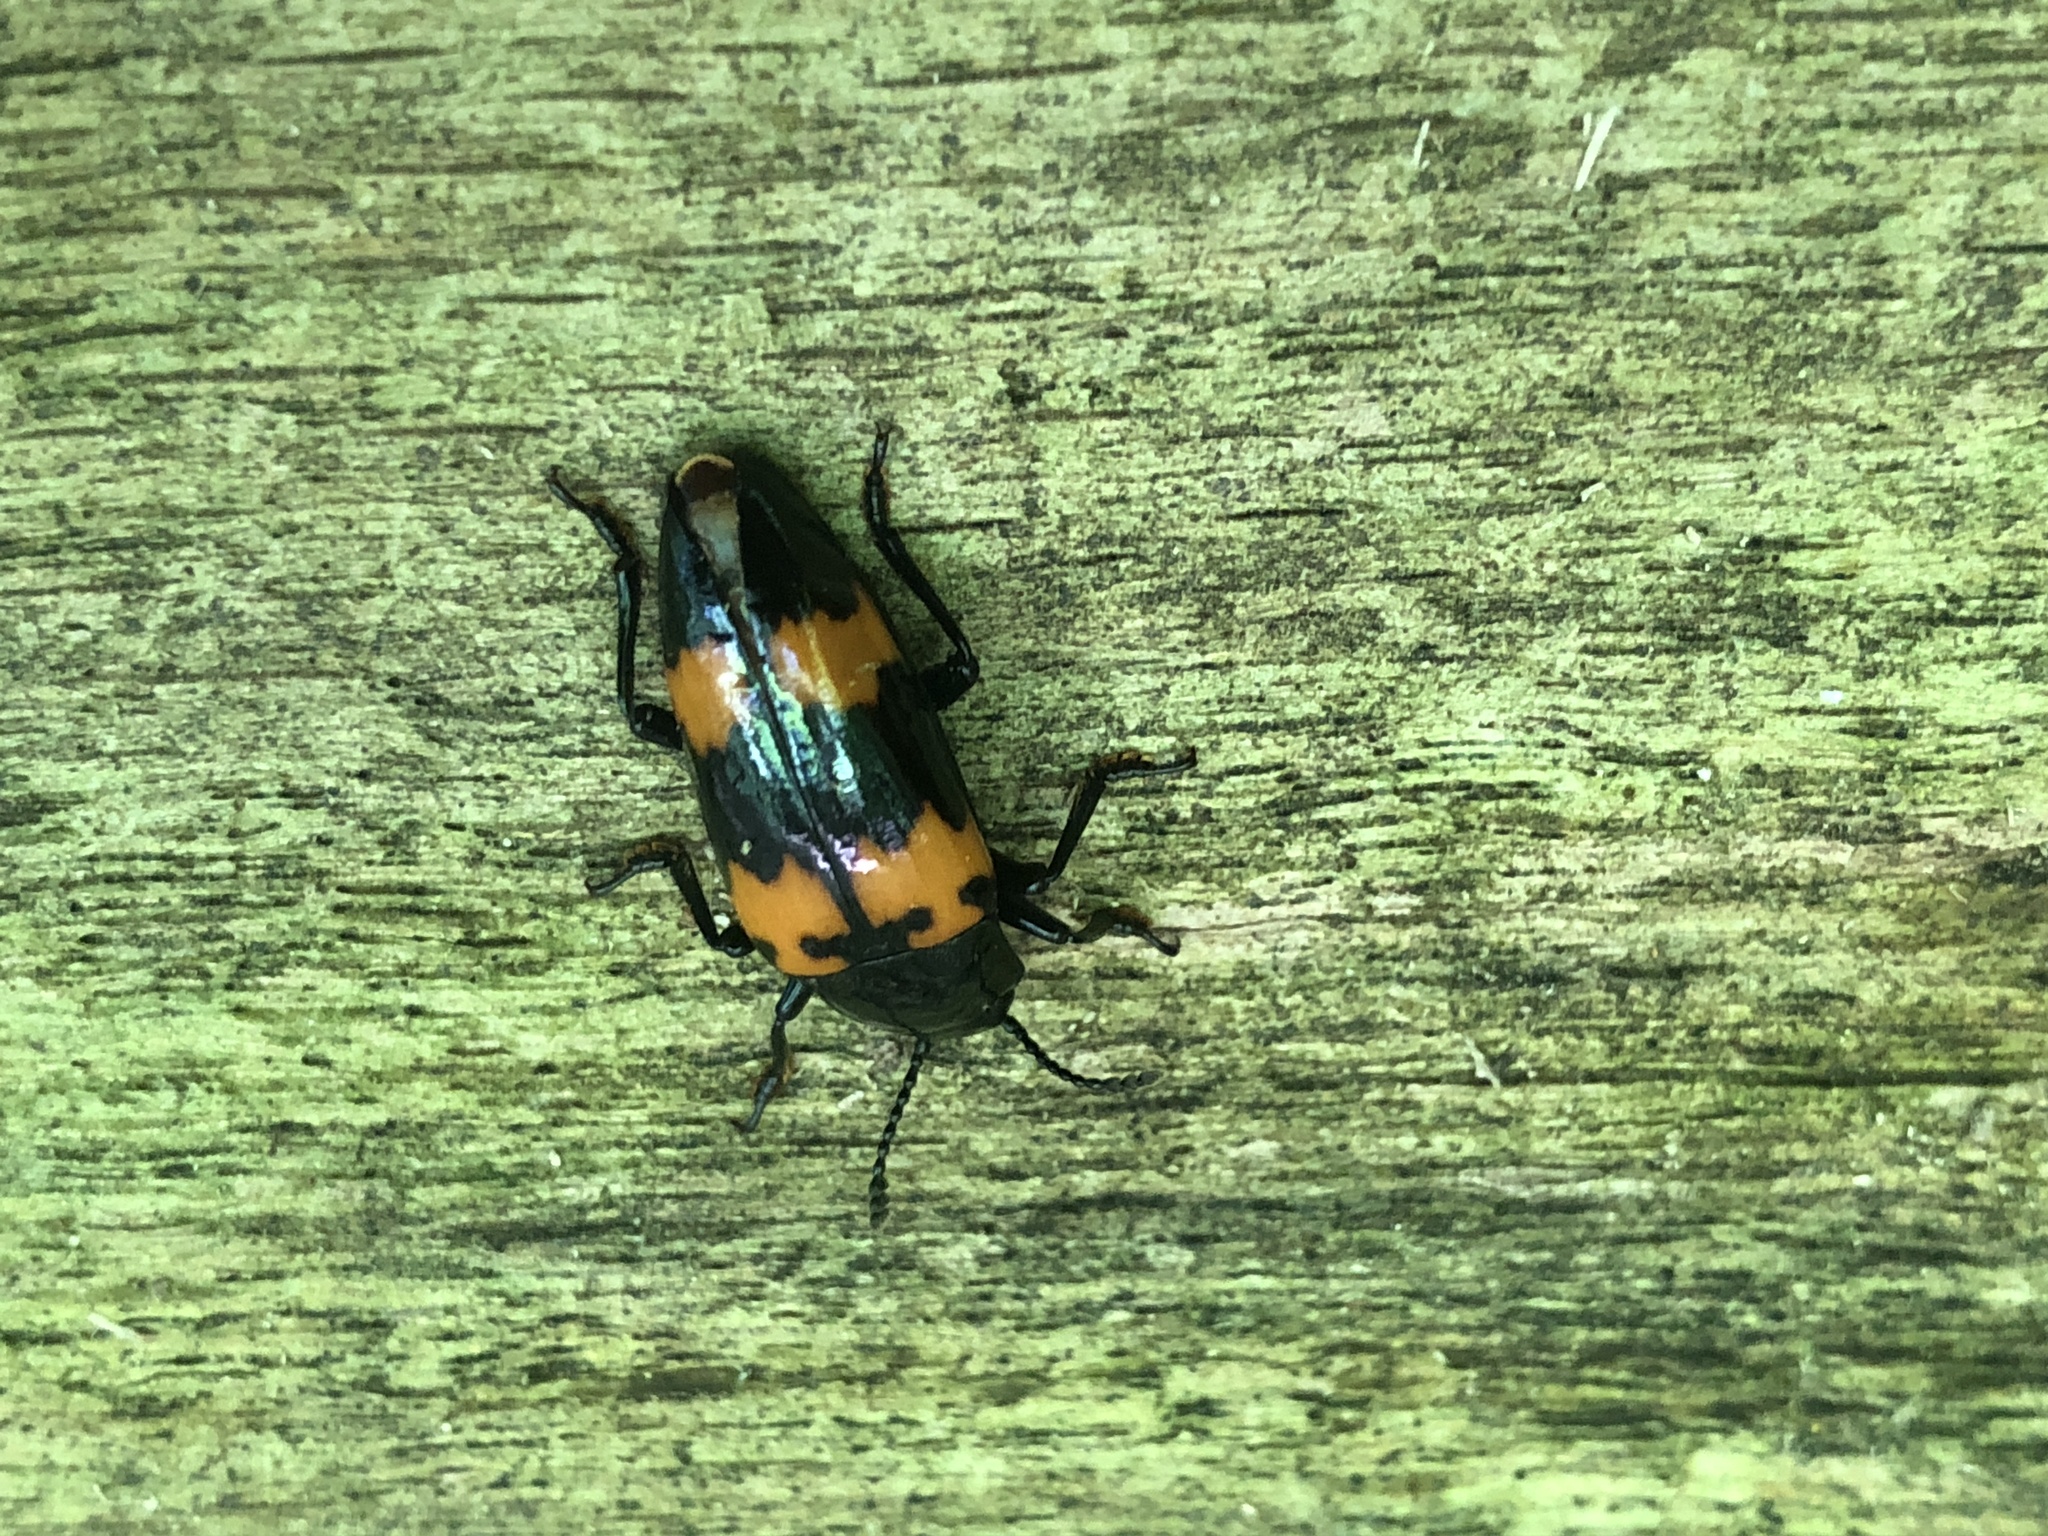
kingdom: Animalia
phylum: Arthropoda
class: Insecta
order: Coleoptera
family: Erotylidae
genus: Megalodacne
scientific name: Megalodacne heros
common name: Pleasing fungus beetle
